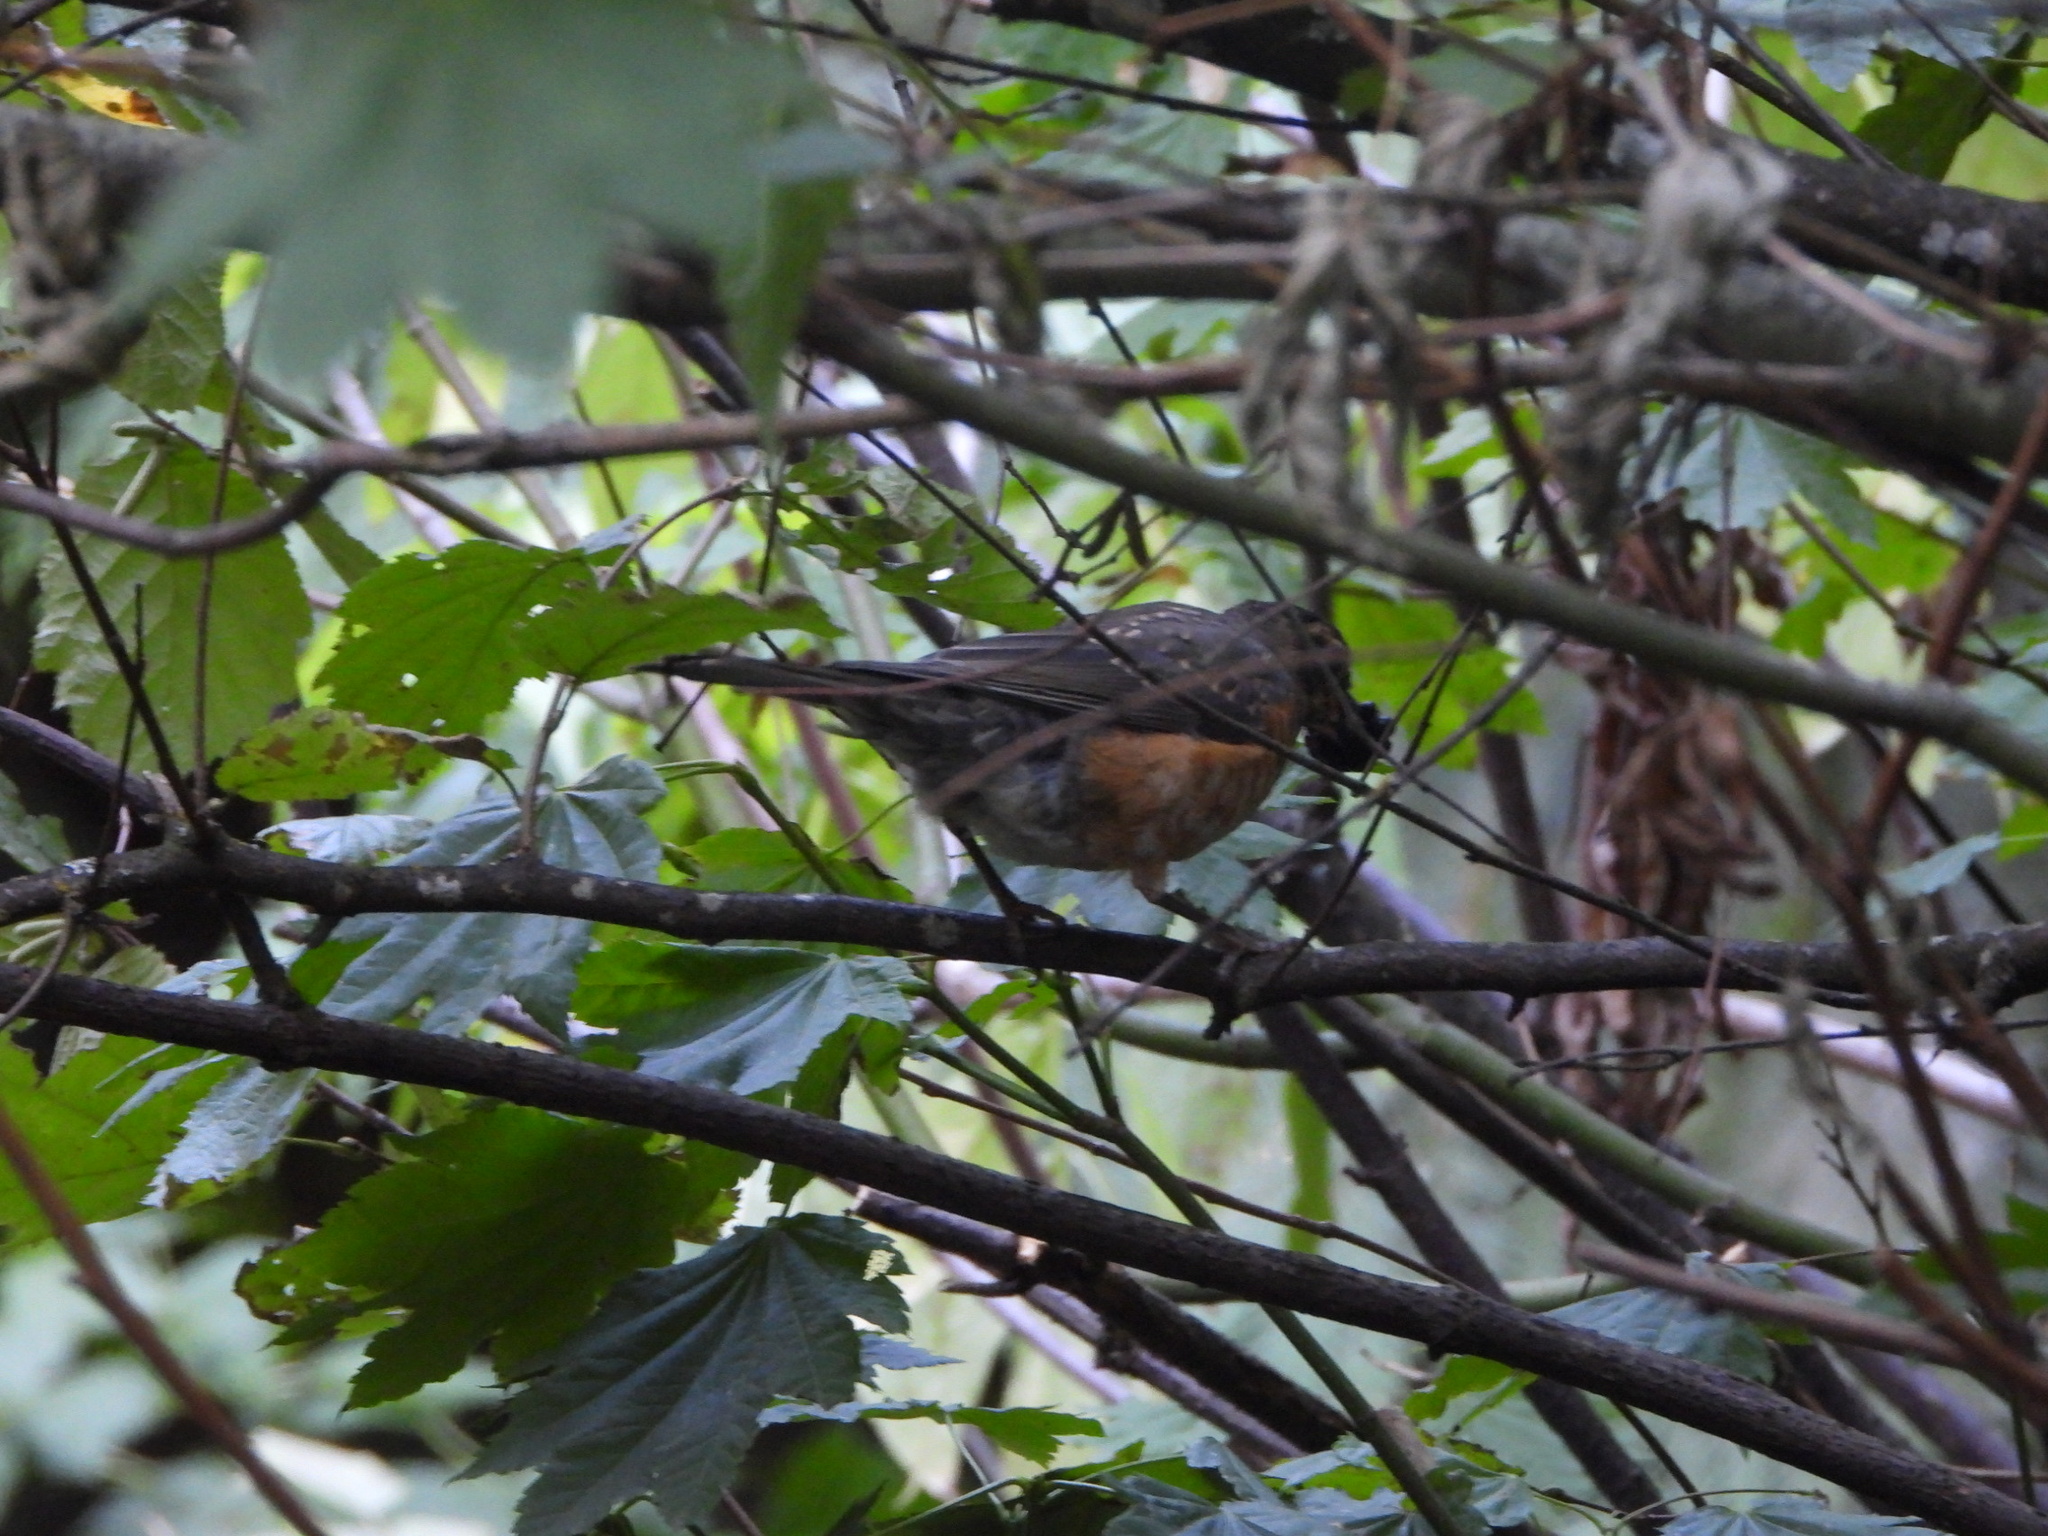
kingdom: Animalia
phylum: Chordata
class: Aves
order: Passeriformes
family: Turdidae
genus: Turdus
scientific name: Turdus migratorius
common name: American robin
